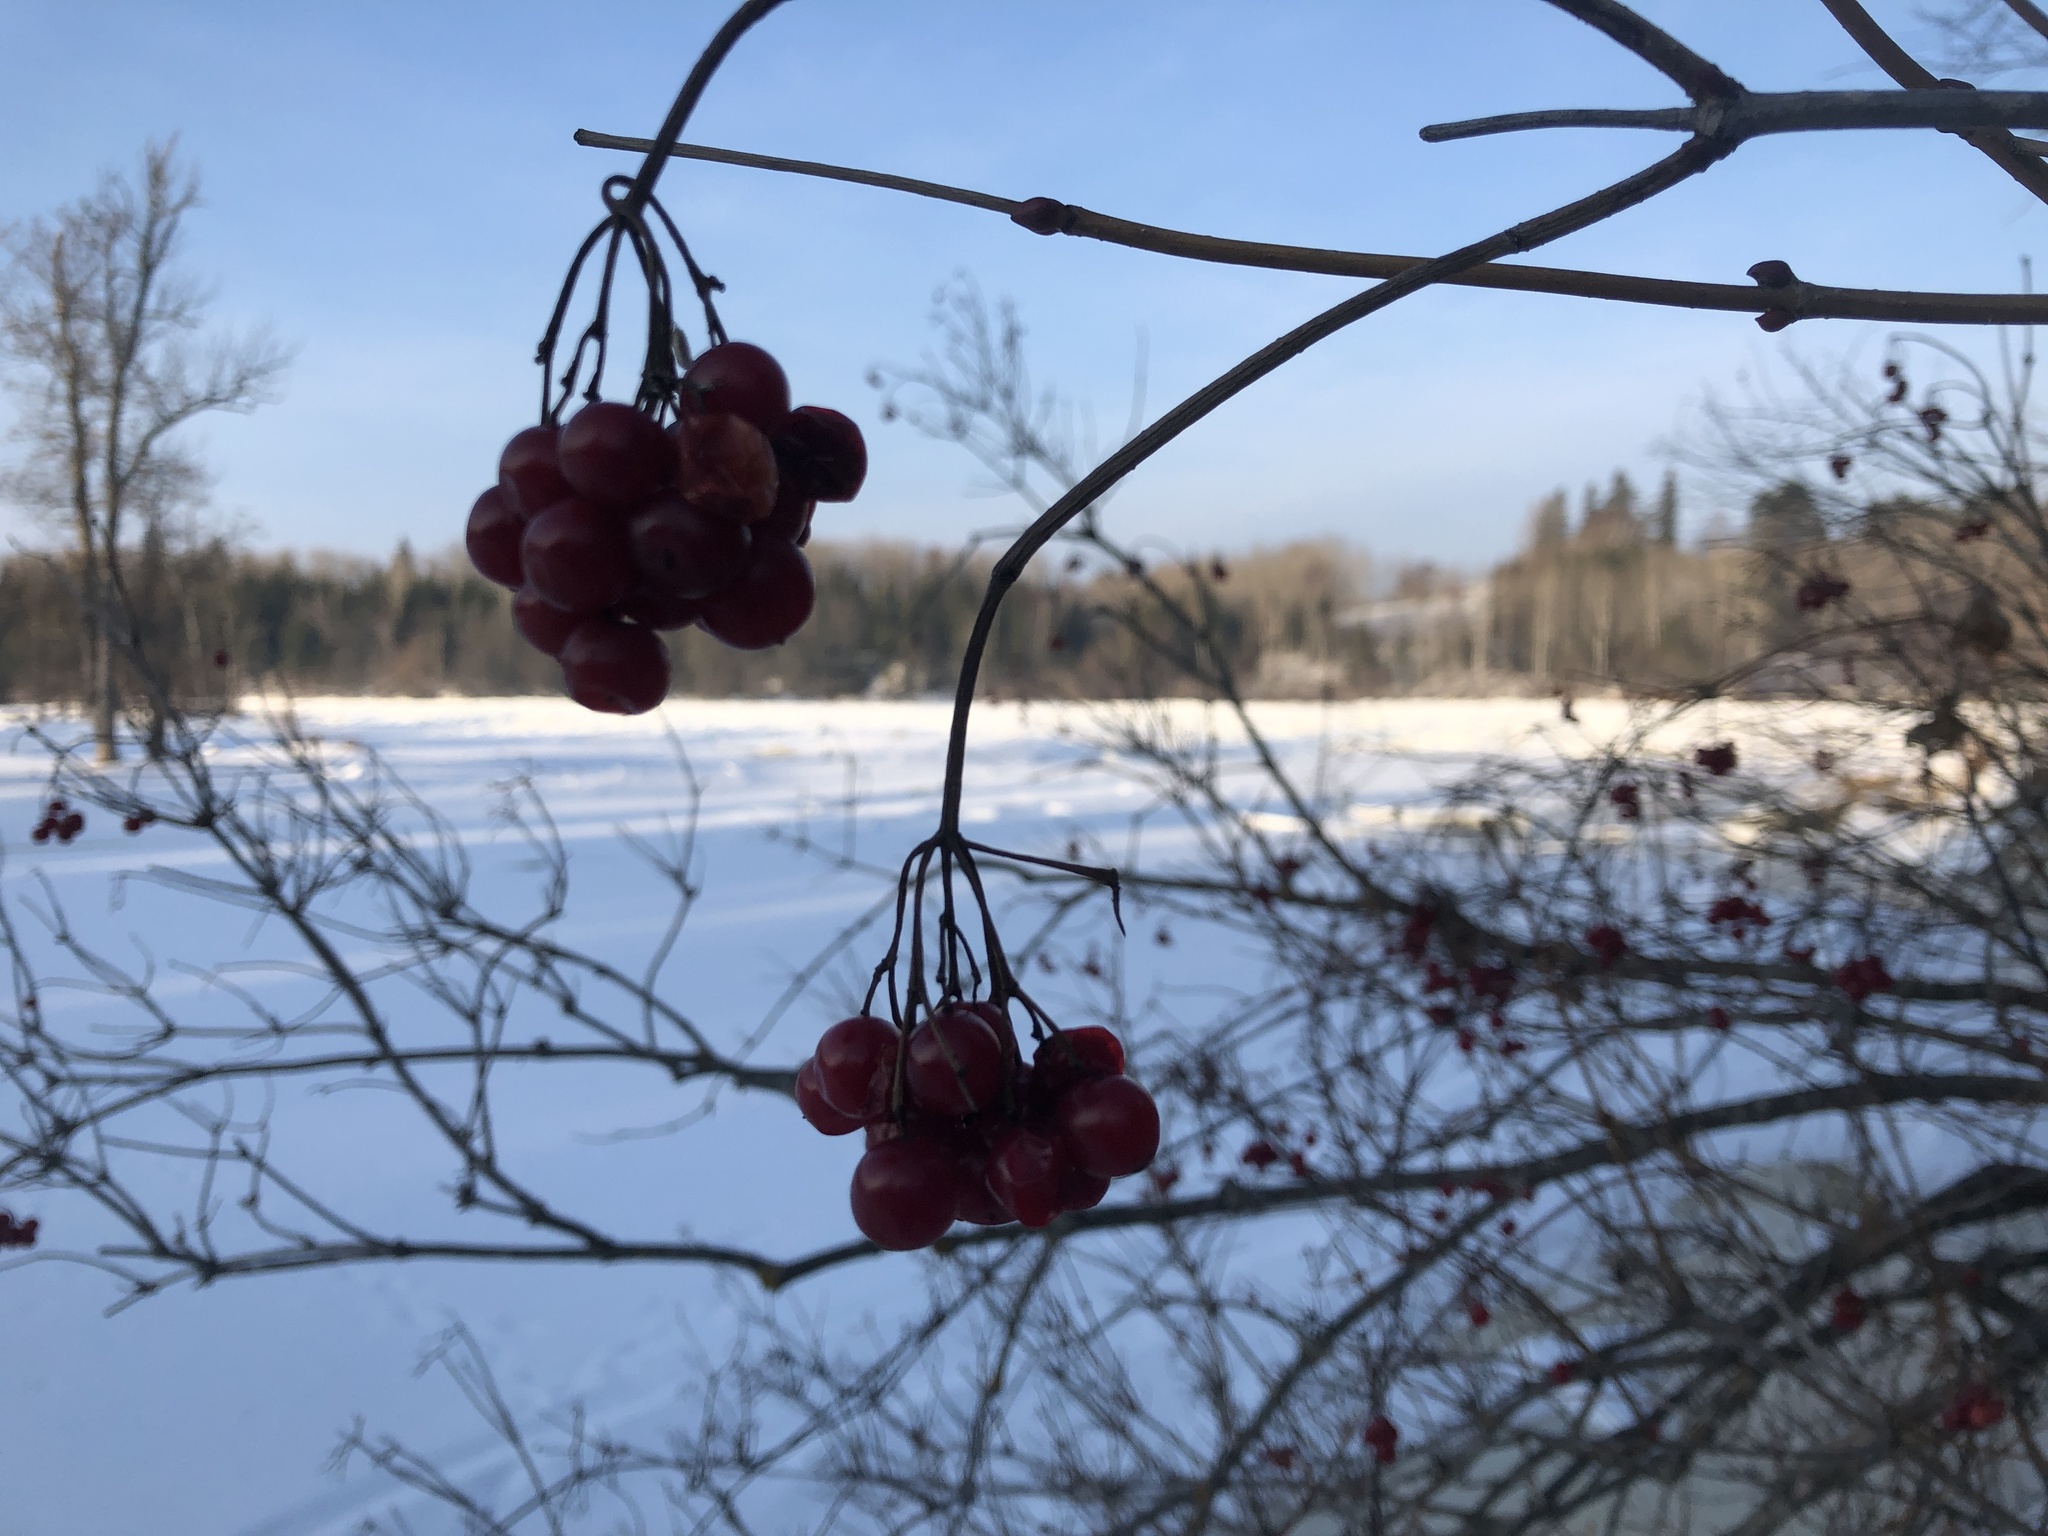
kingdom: Plantae
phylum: Tracheophyta
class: Magnoliopsida
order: Dipsacales
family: Viburnaceae
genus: Viburnum
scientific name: Viburnum opulus
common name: Guelder-rose
